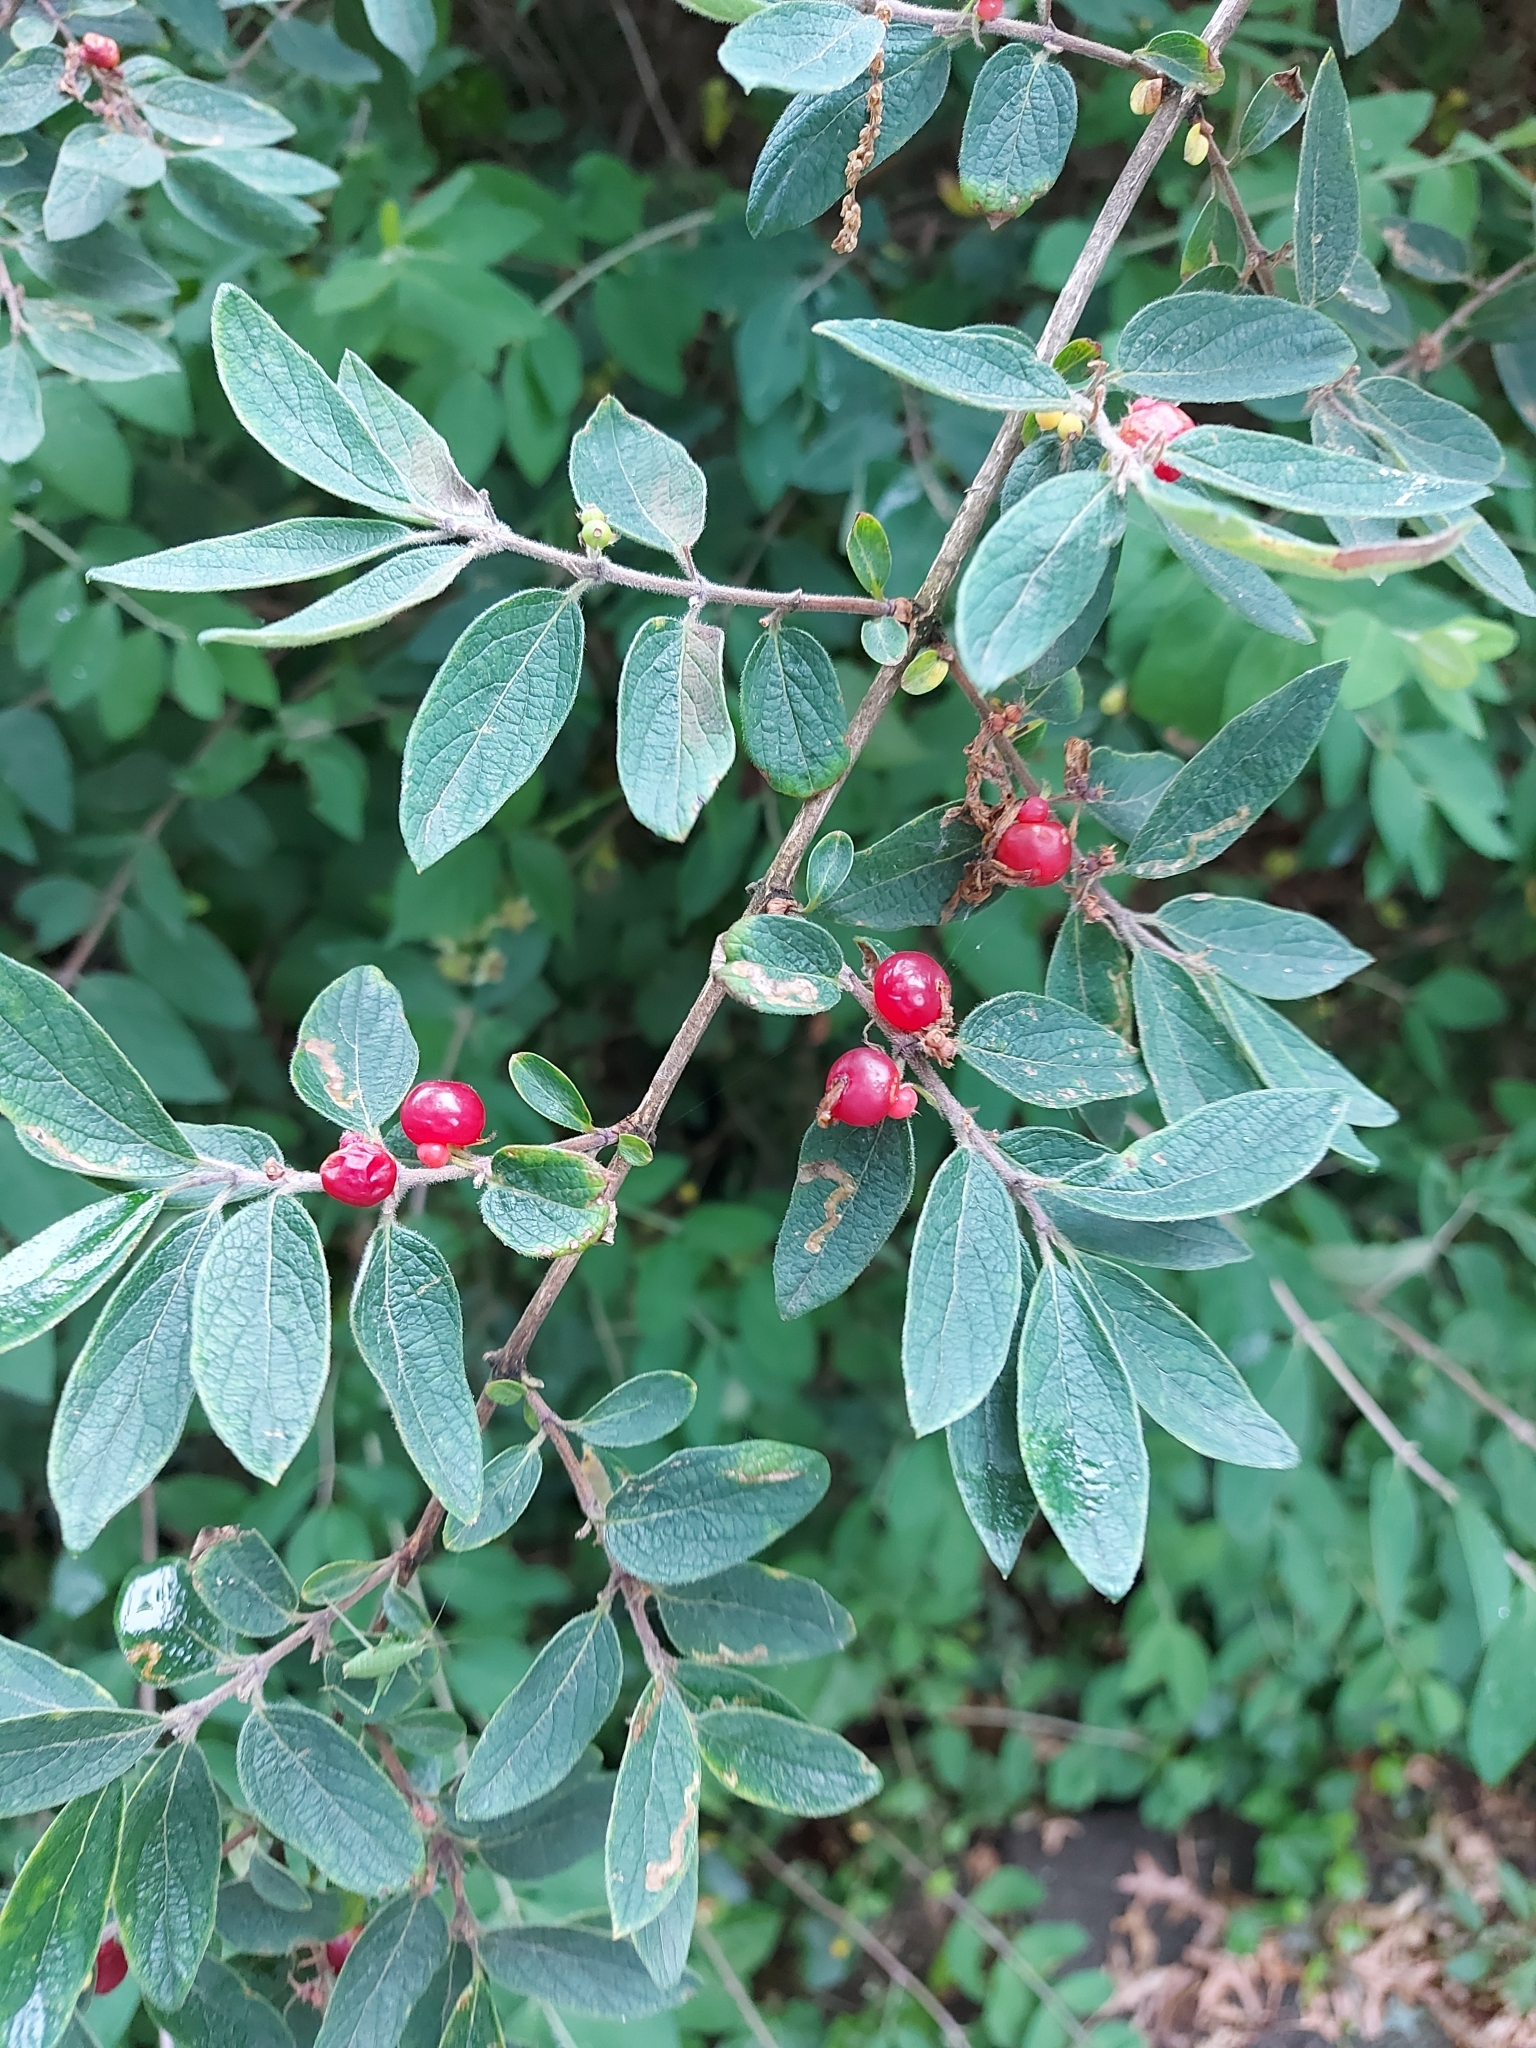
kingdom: Plantae
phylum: Tracheophyta
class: Magnoliopsida
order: Dipsacales
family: Caprifoliaceae
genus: Lonicera
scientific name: Lonicera xylosteum
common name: Fly honeysuckle
